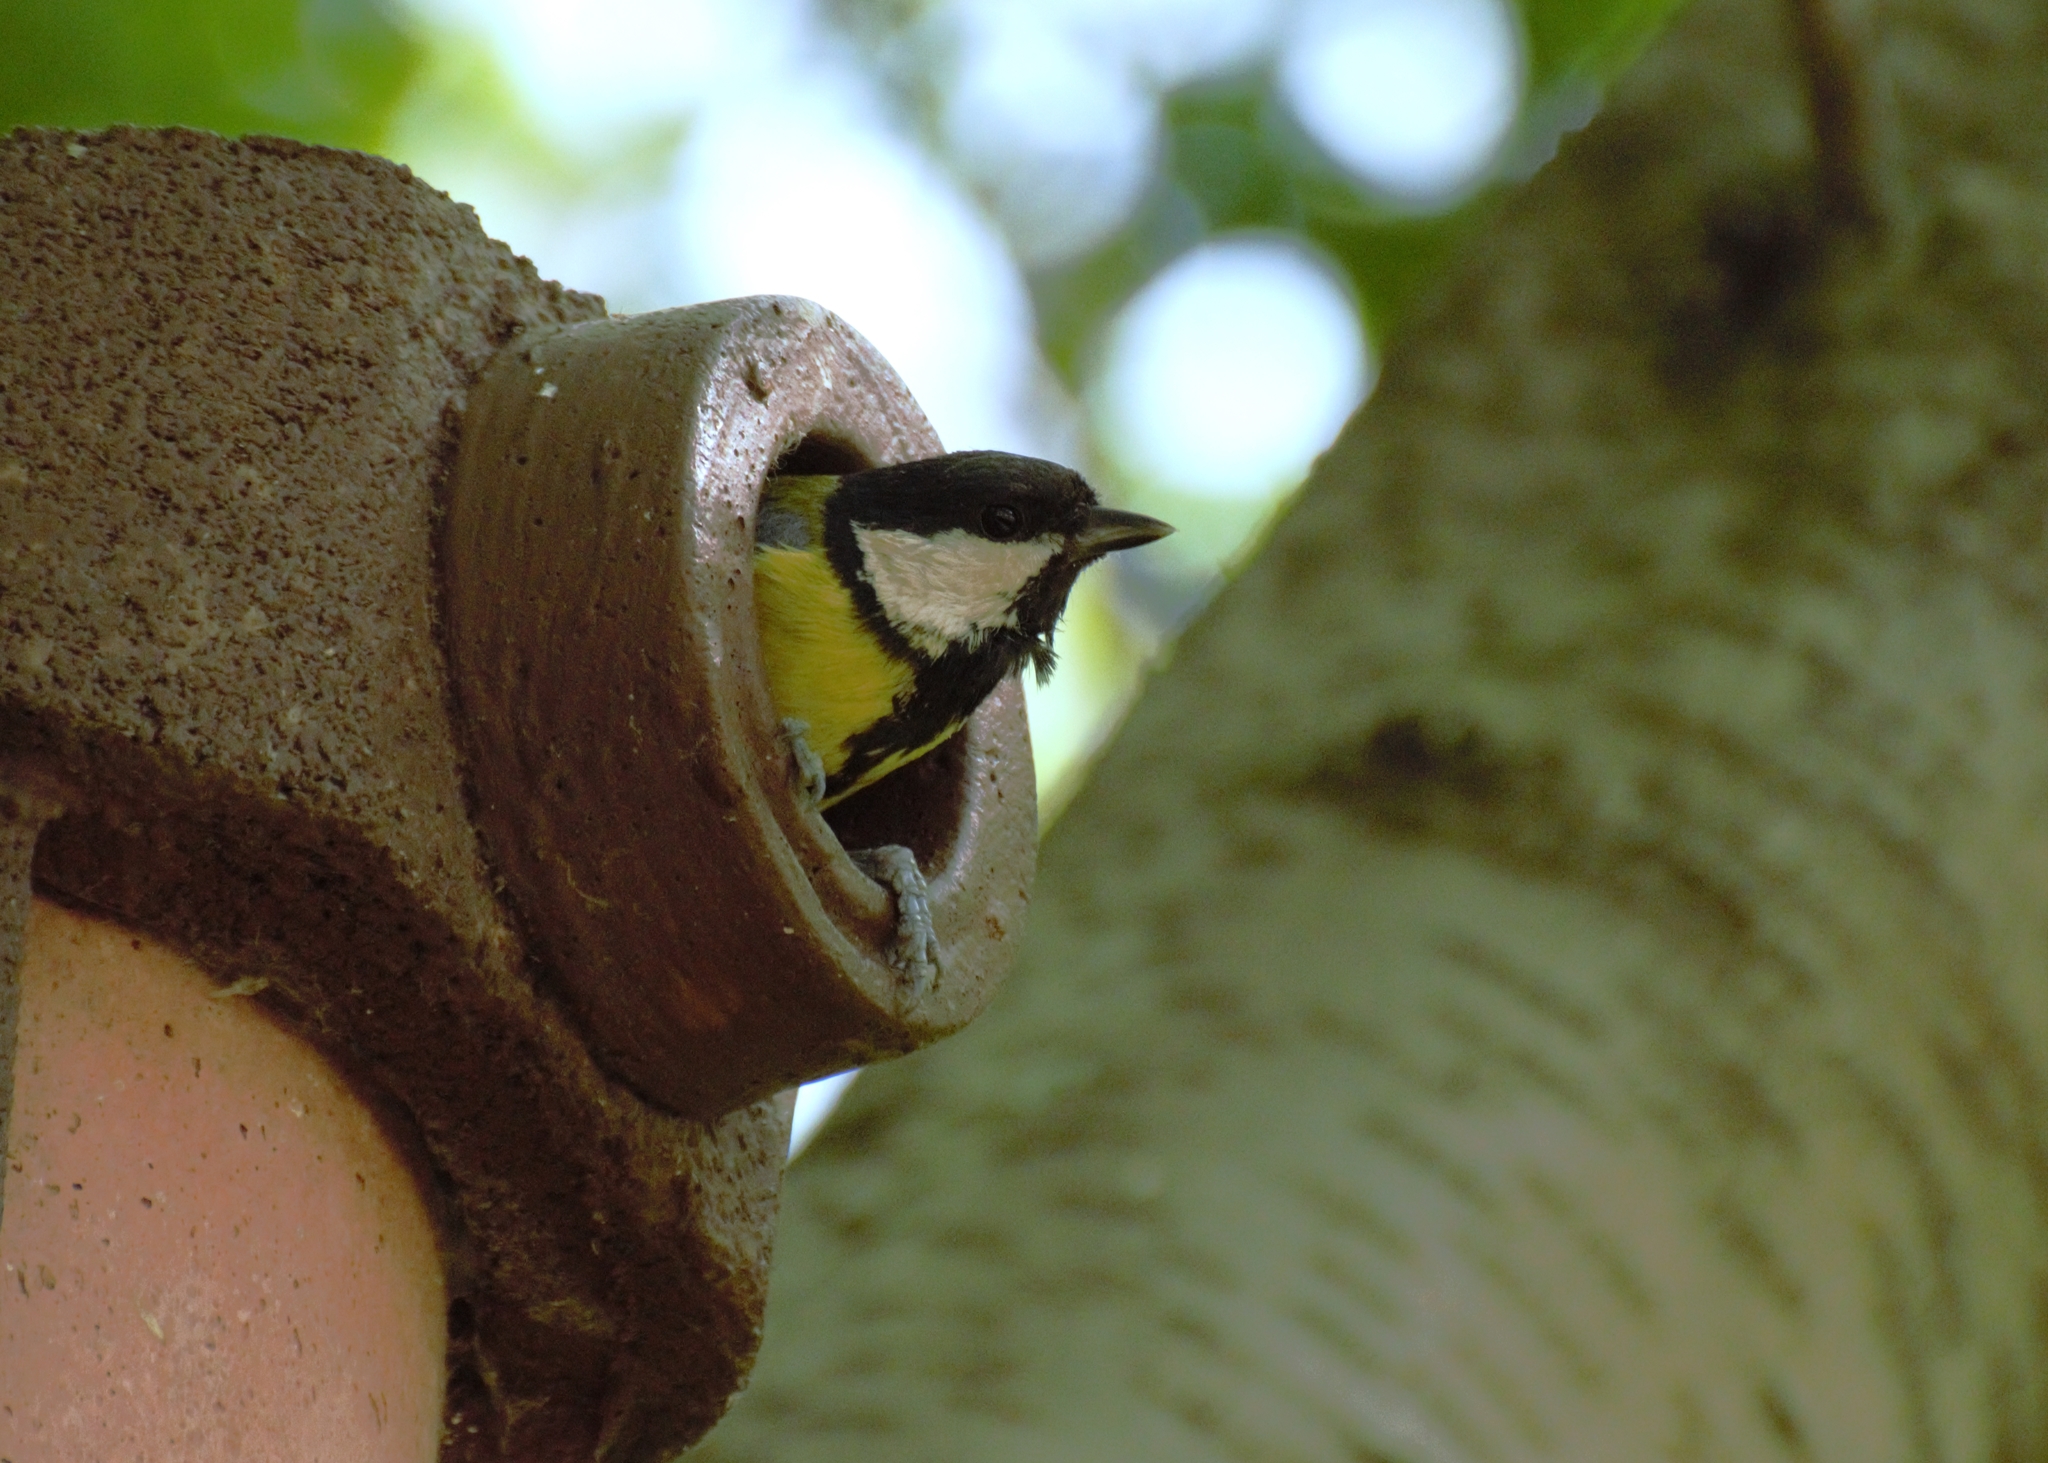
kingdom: Animalia
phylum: Chordata
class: Aves
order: Passeriformes
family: Paridae
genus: Parus
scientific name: Parus major
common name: Great tit
